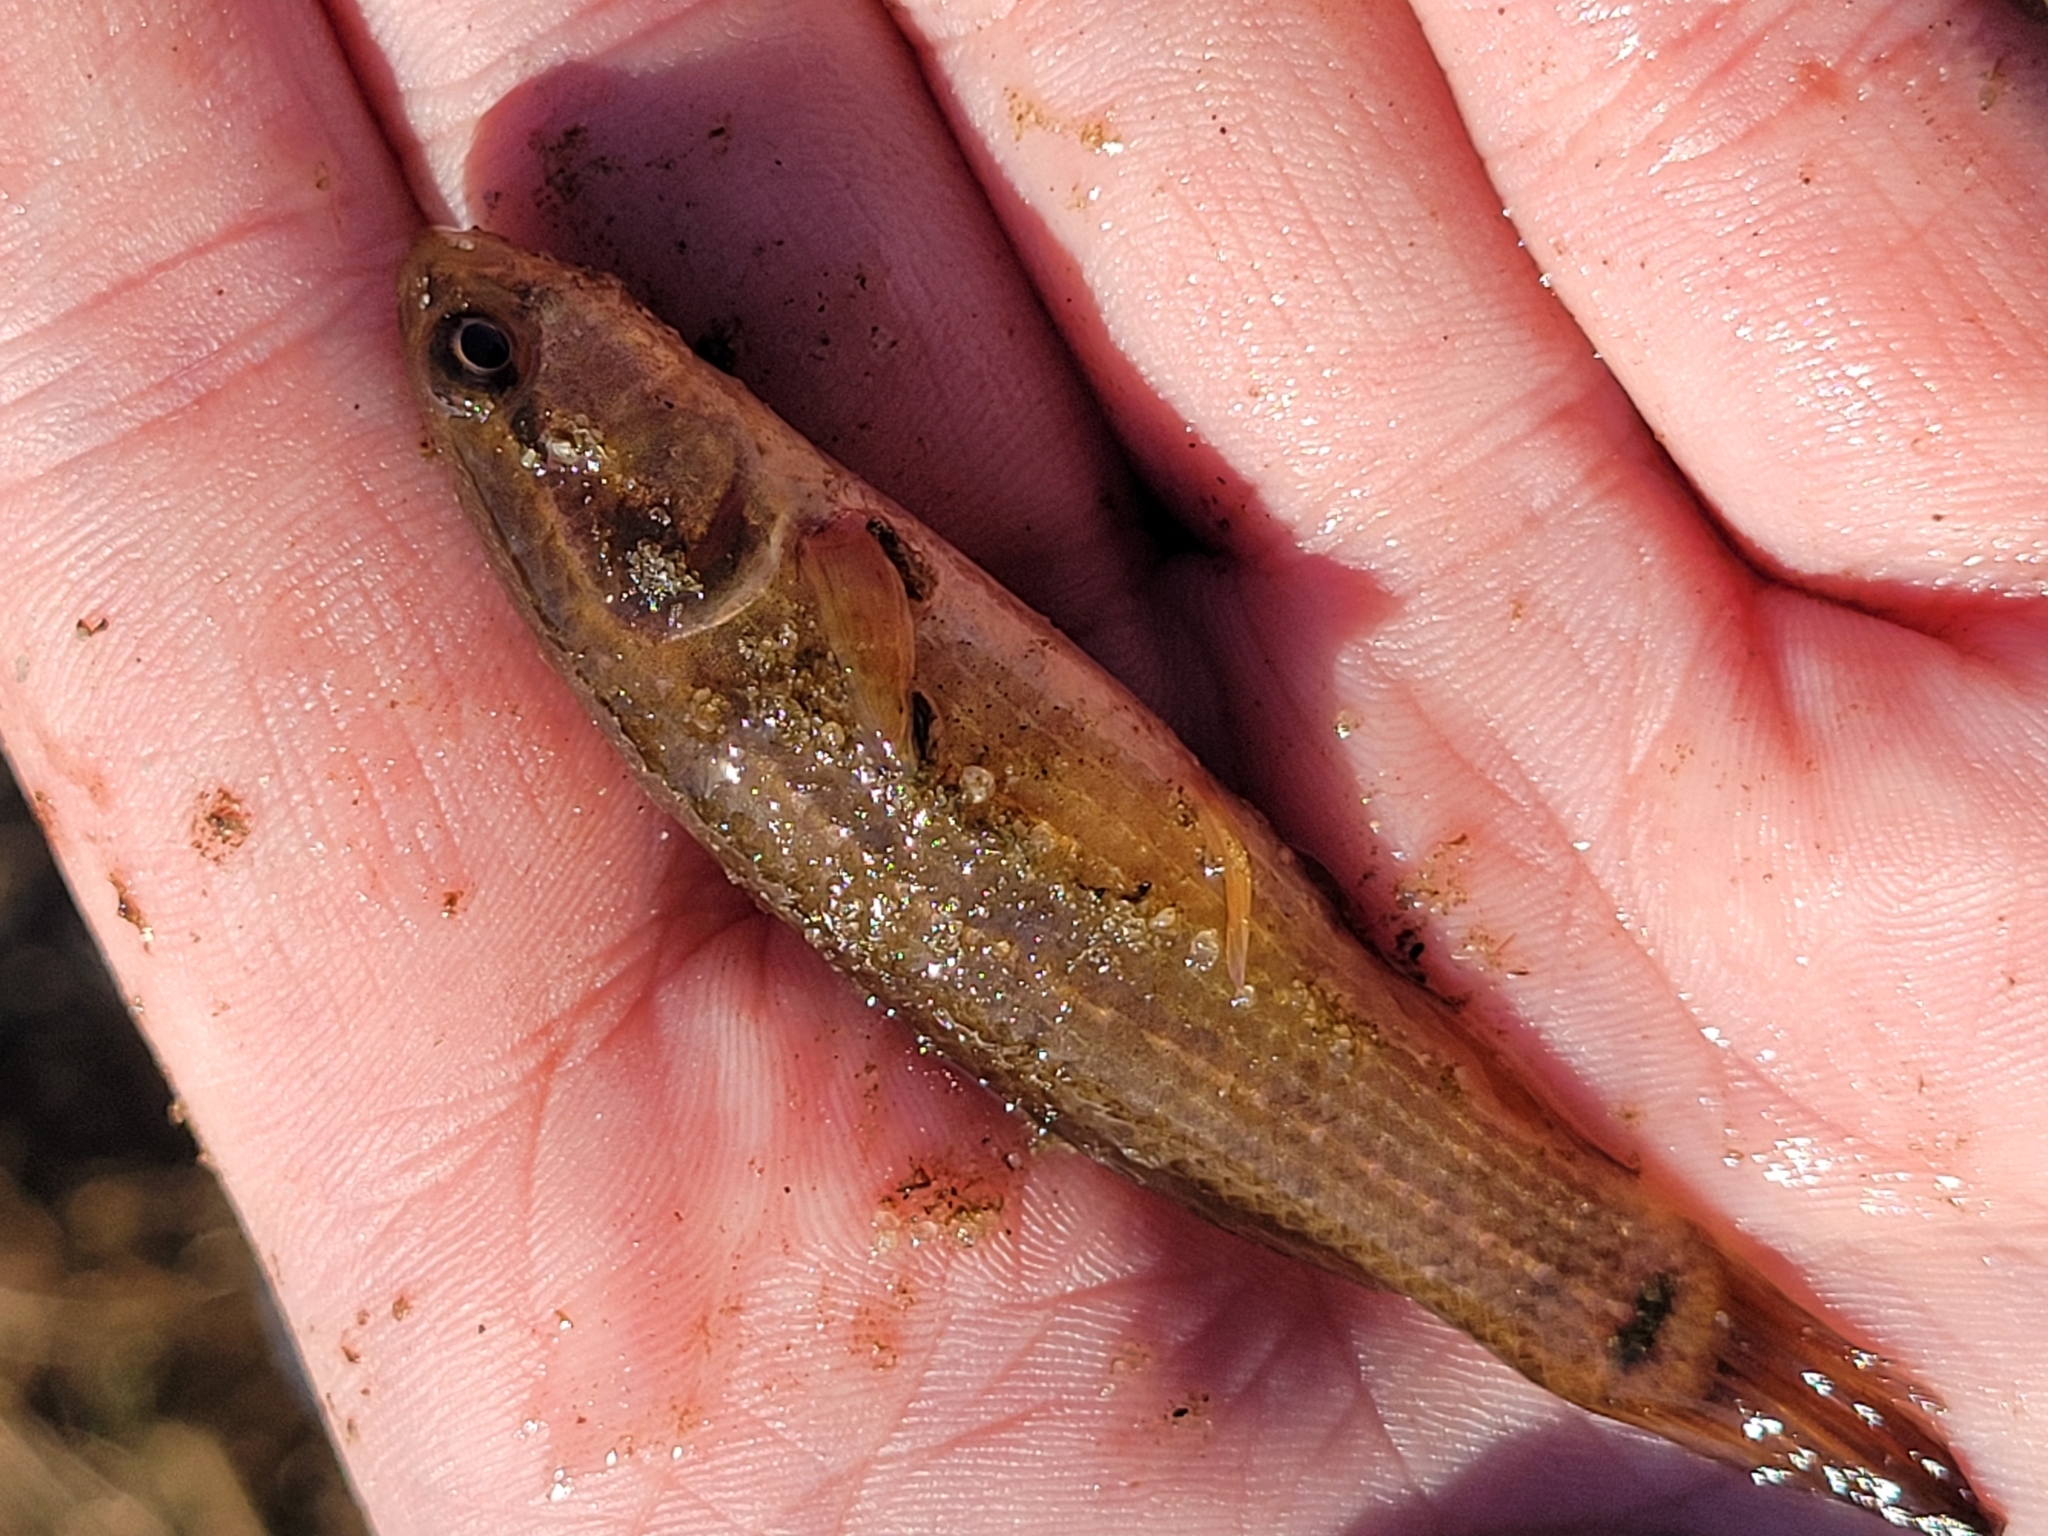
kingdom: Animalia
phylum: Chordata
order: Esociformes
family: Umbridae
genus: Umbra
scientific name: Umbra pygmaea
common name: Eastern mudminnow
